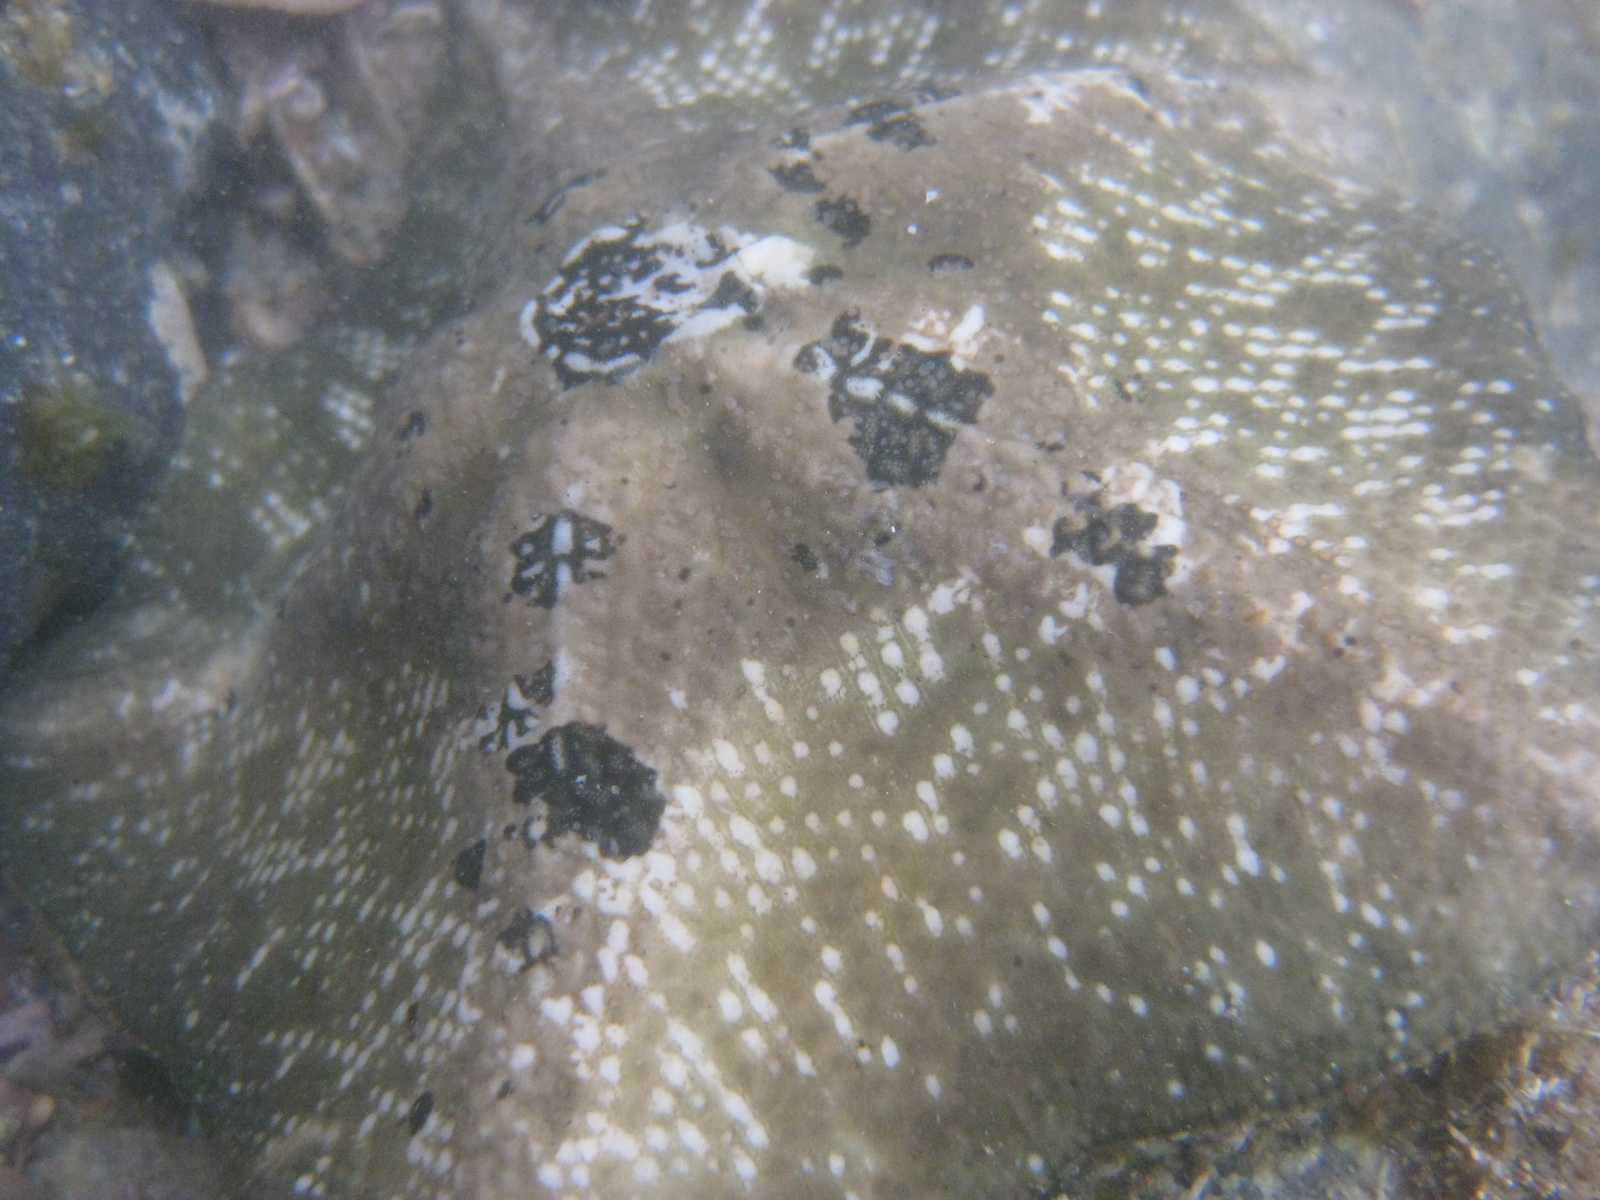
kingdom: Animalia
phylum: Echinodermata
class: Asteroidea
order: Valvatida
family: Asterinidae
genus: Stegnaster
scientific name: Stegnaster inflatus
